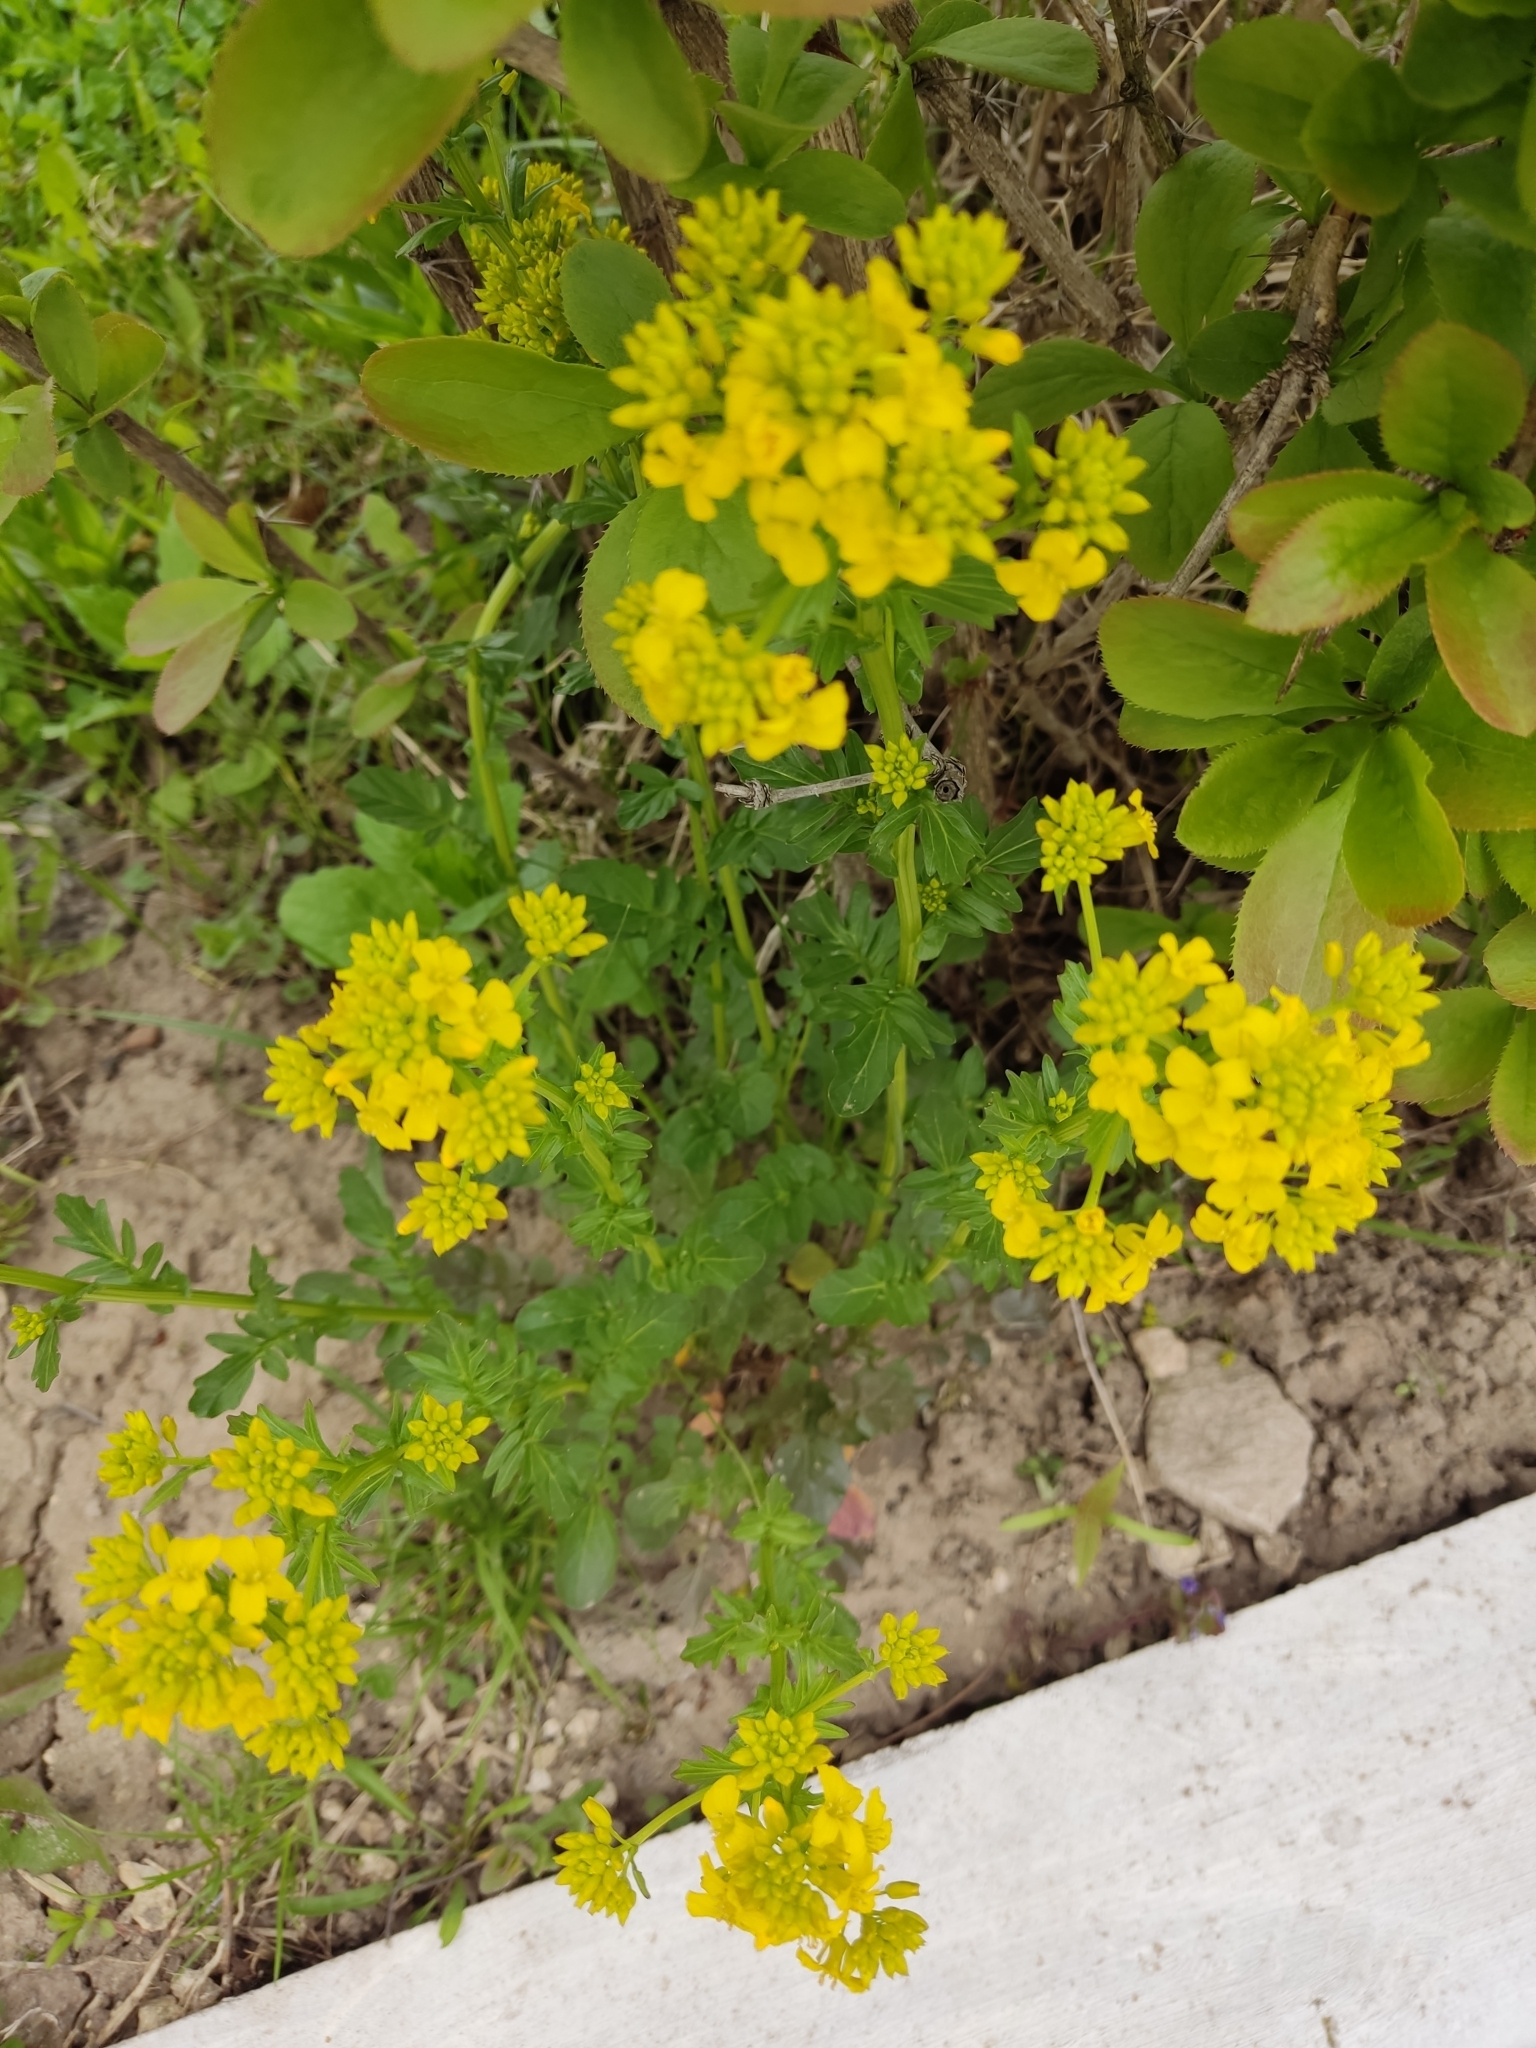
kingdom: Plantae
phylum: Tracheophyta
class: Magnoliopsida
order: Brassicales
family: Brassicaceae
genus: Barbarea
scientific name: Barbarea vulgaris
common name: Cressy-greens
